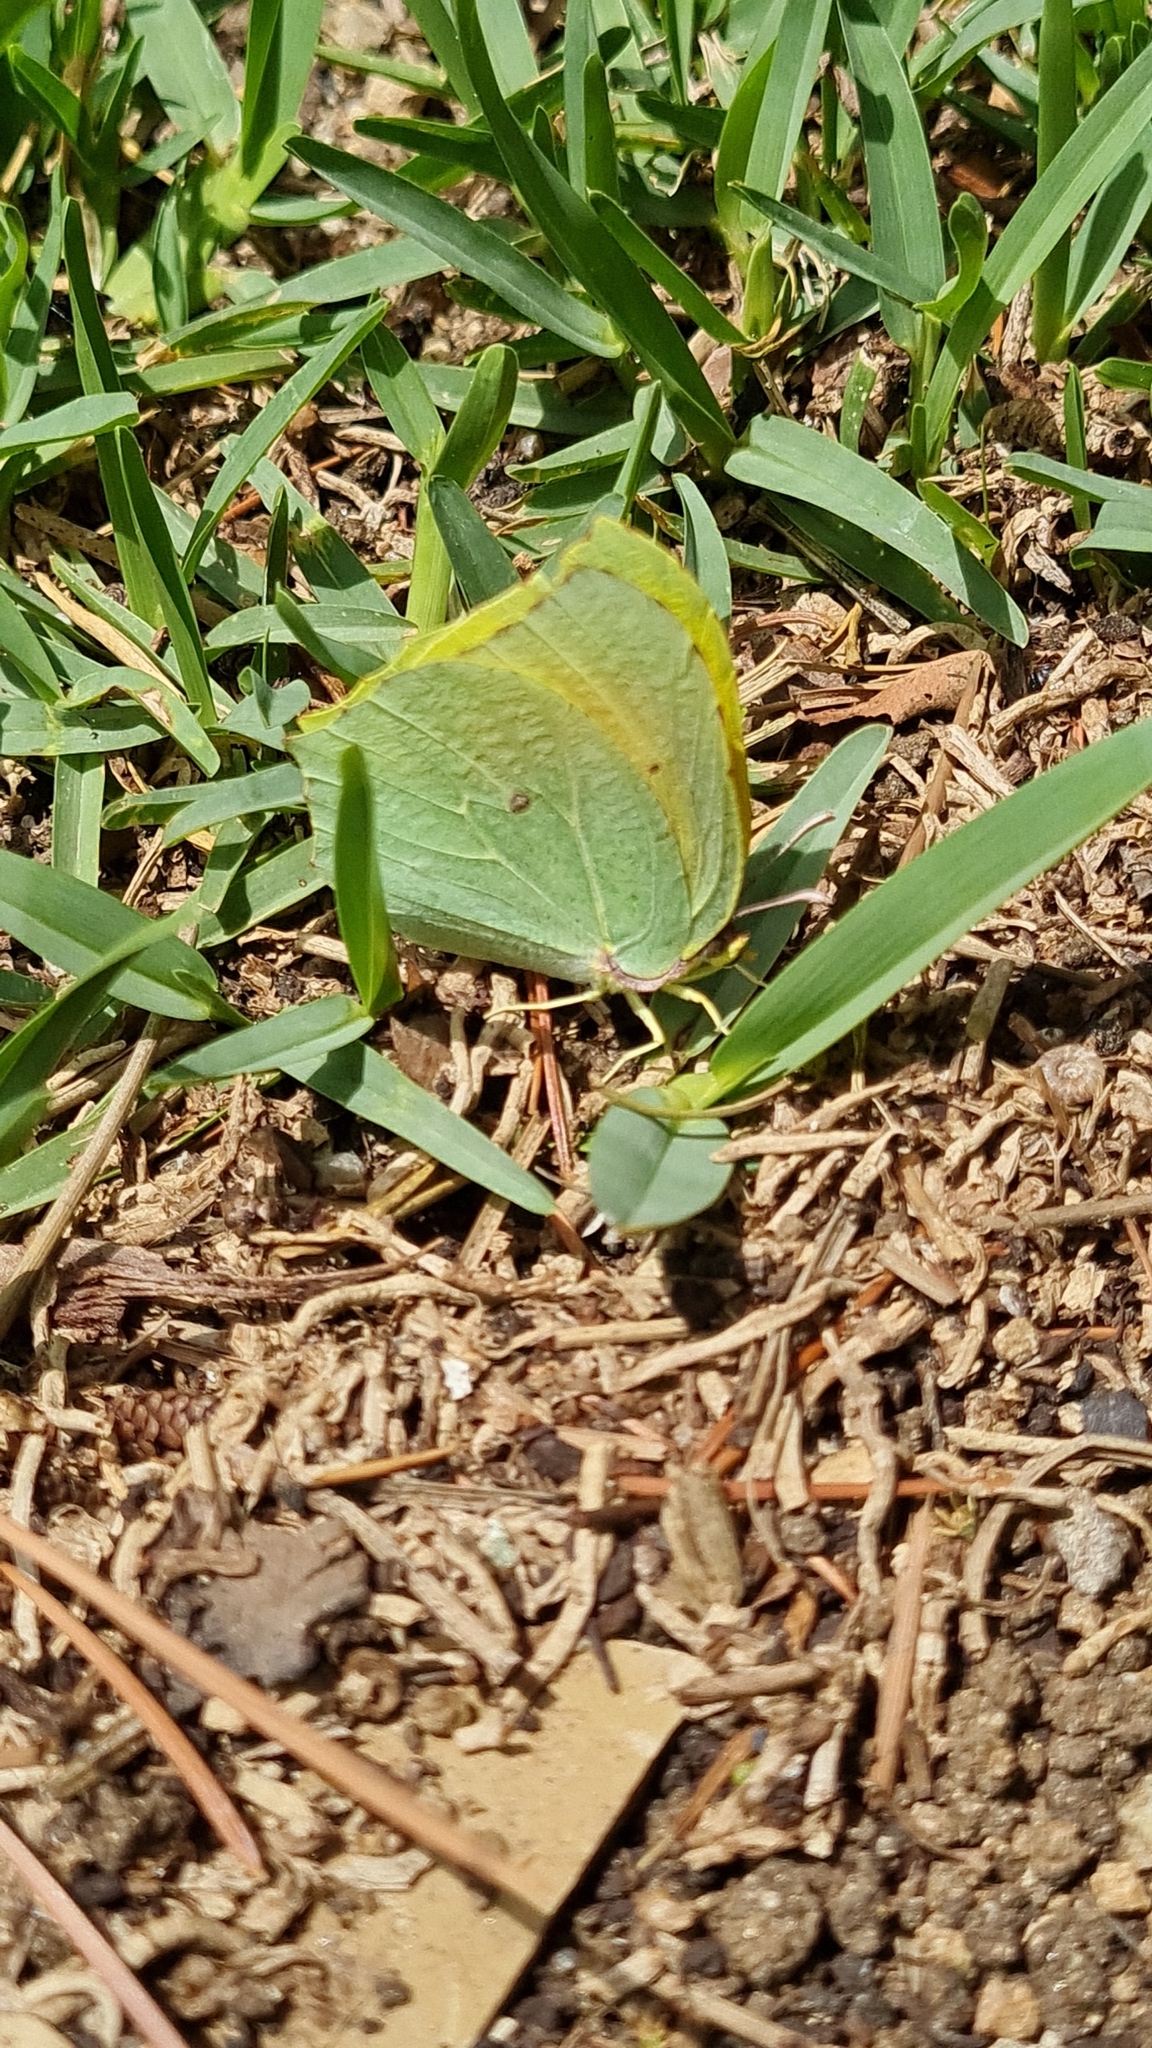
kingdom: Animalia
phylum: Arthropoda
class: Insecta
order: Lepidoptera
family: Pieridae
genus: Gonepteryx
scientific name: Gonepteryx cleopatra
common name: Cleopatra
